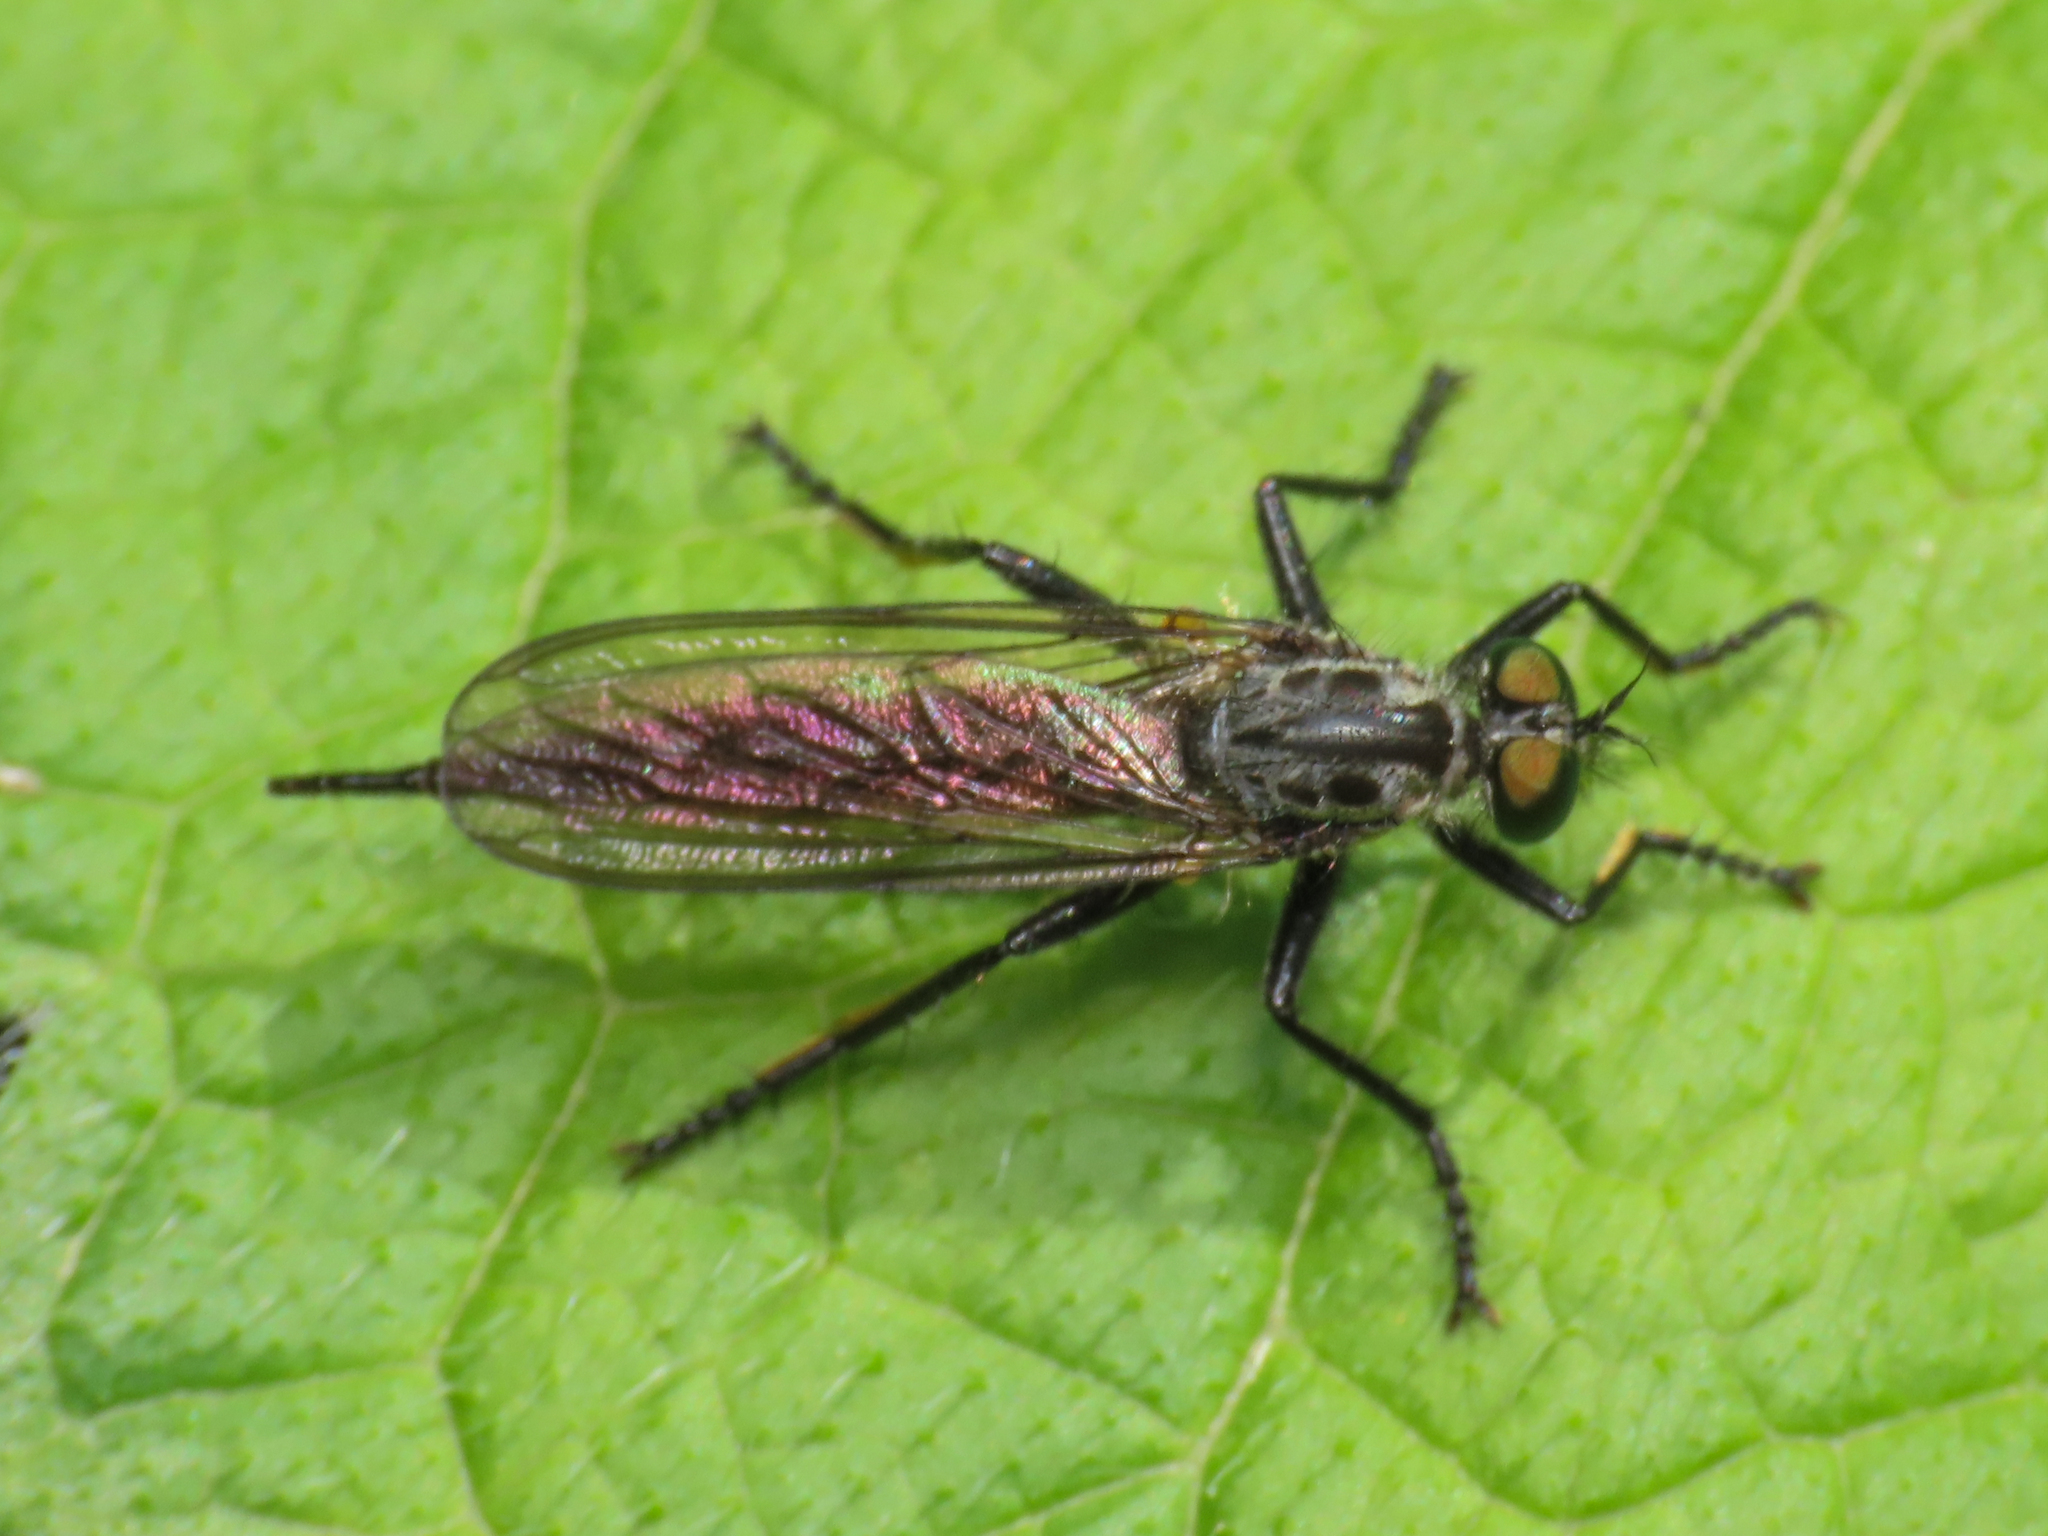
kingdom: Animalia
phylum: Arthropoda
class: Insecta
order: Diptera
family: Asilidae
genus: Neoitamus
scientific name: Neoitamus castellanii
